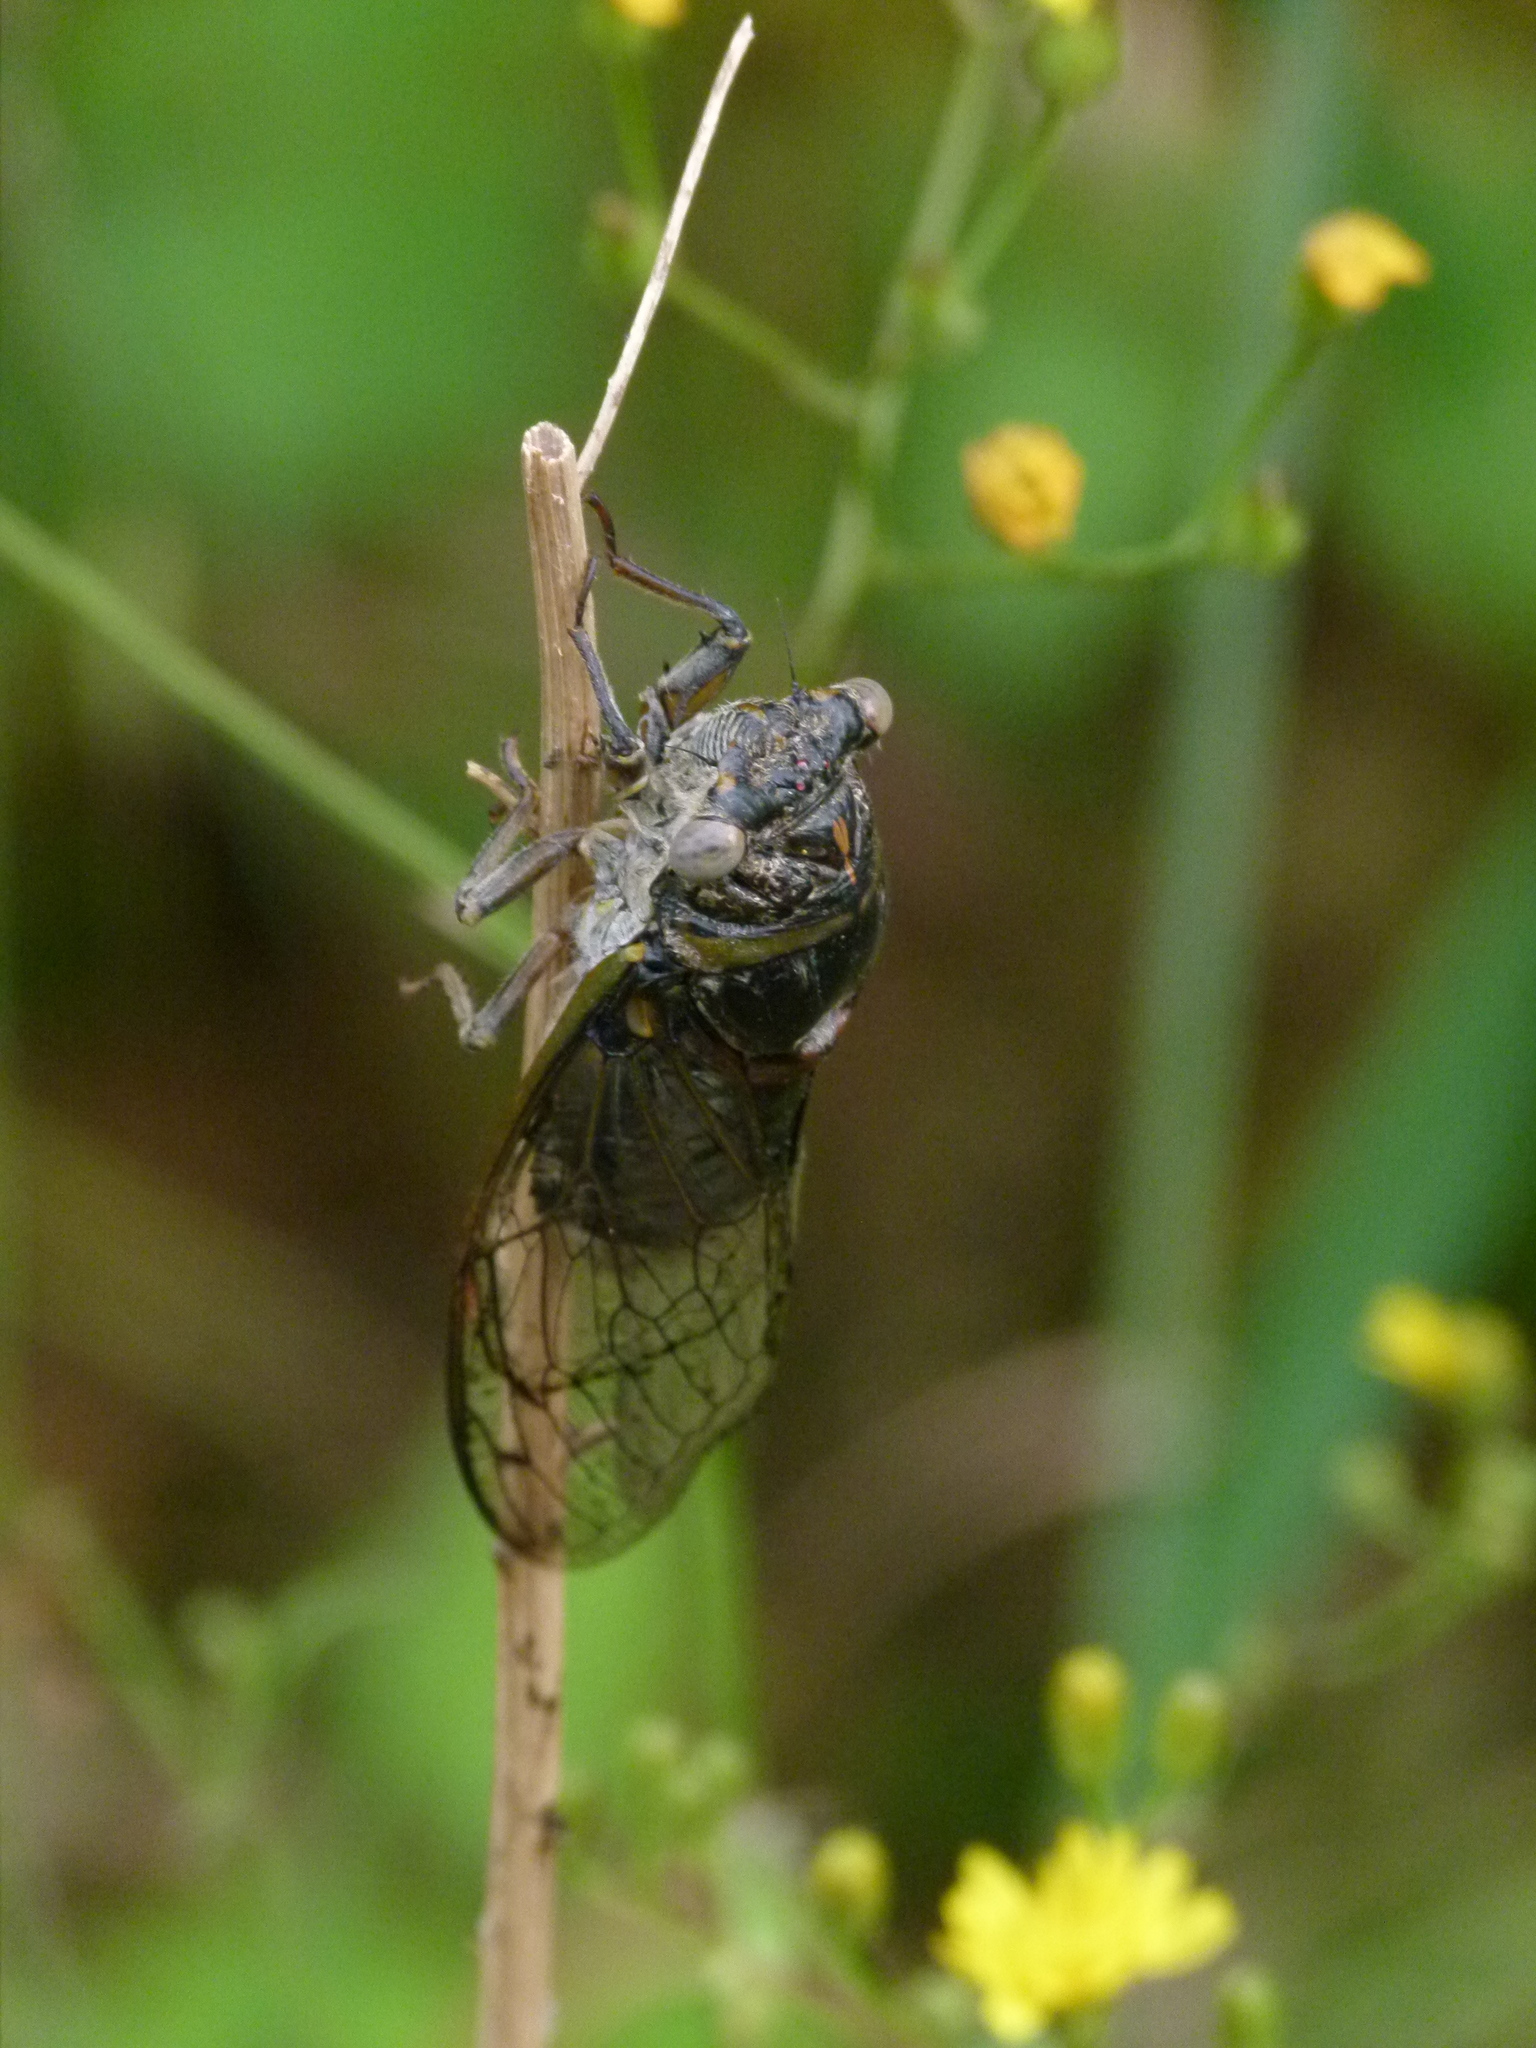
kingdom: Animalia
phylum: Arthropoda
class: Insecta
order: Hemiptera
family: Cicadidae
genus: Lyristes
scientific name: Lyristes plebejus
